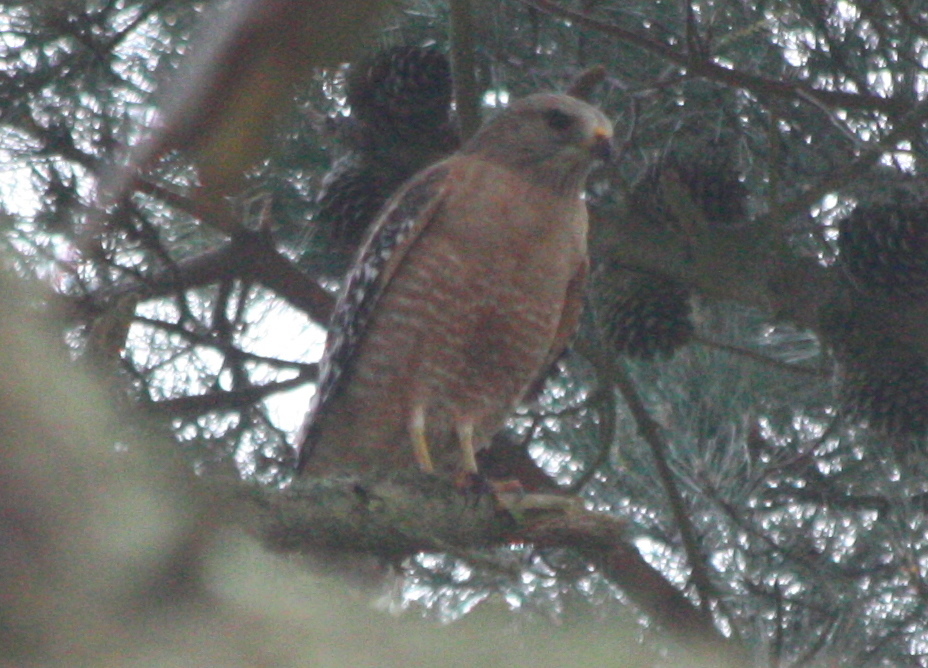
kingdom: Animalia
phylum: Chordata
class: Aves
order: Accipitriformes
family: Accipitridae
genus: Buteo
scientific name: Buteo lineatus
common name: Red-shouldered hawk
